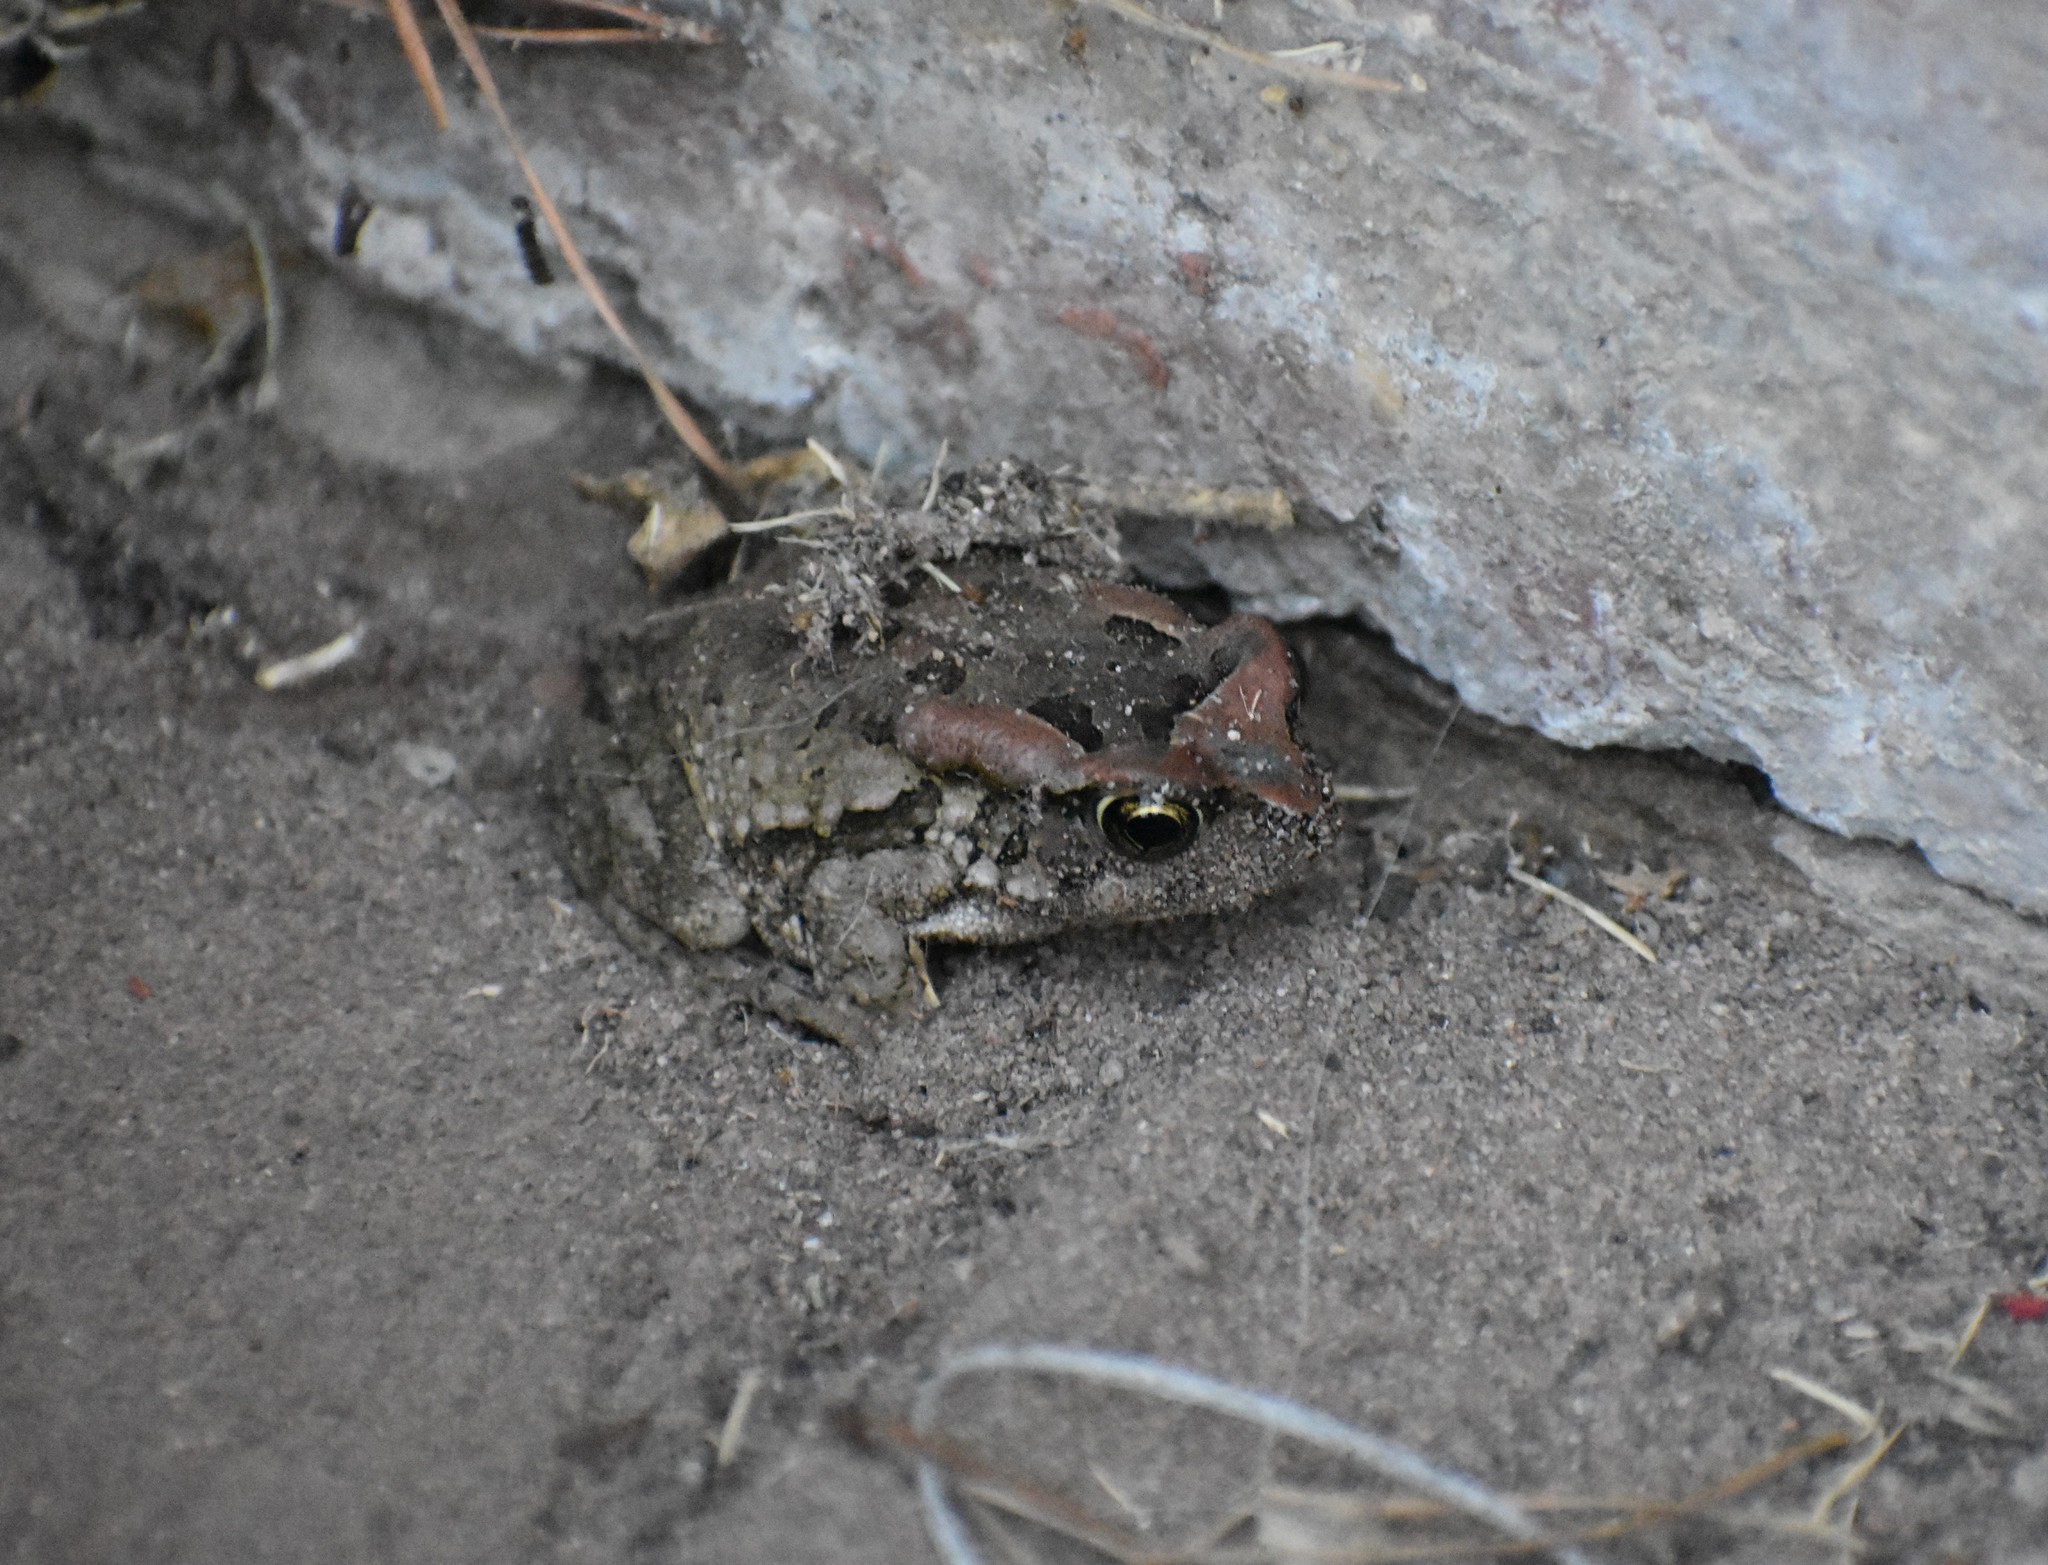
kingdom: Animalia
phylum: Chordata
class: Amphibia
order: Anura
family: Bufonidae
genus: Sclerophrys
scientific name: Sclerophrys capensis
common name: Ranger’s toad
